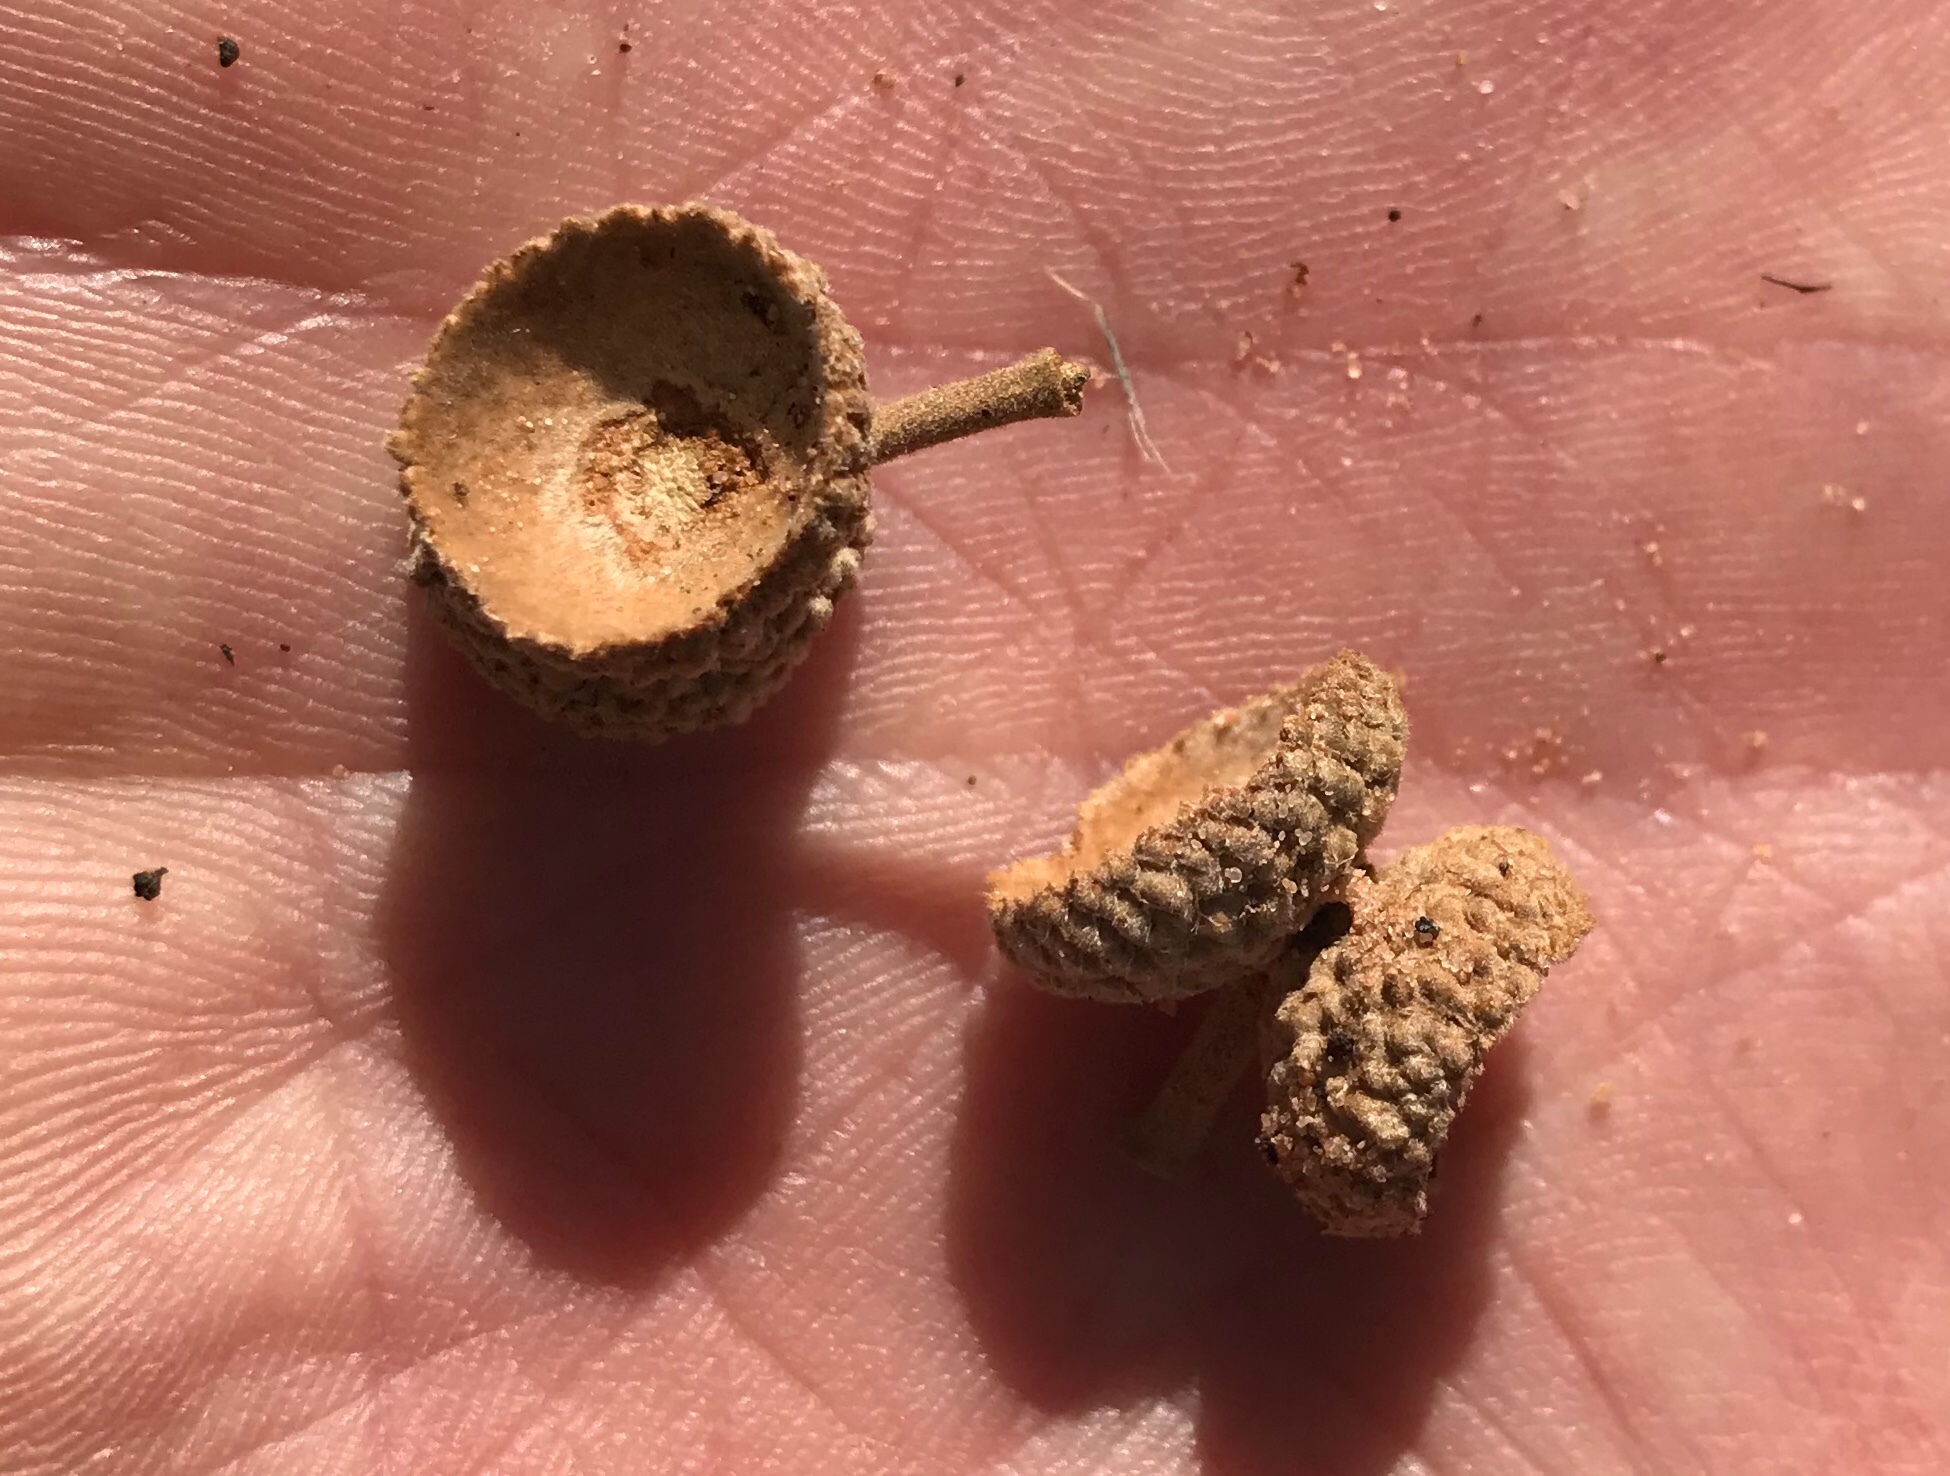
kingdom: Plantae
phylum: Tracheophyta
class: Magnoliopsida
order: Fagales
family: Fagaceae
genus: Quercus
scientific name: Quercus turbinella
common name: Sonoran scrub oak
